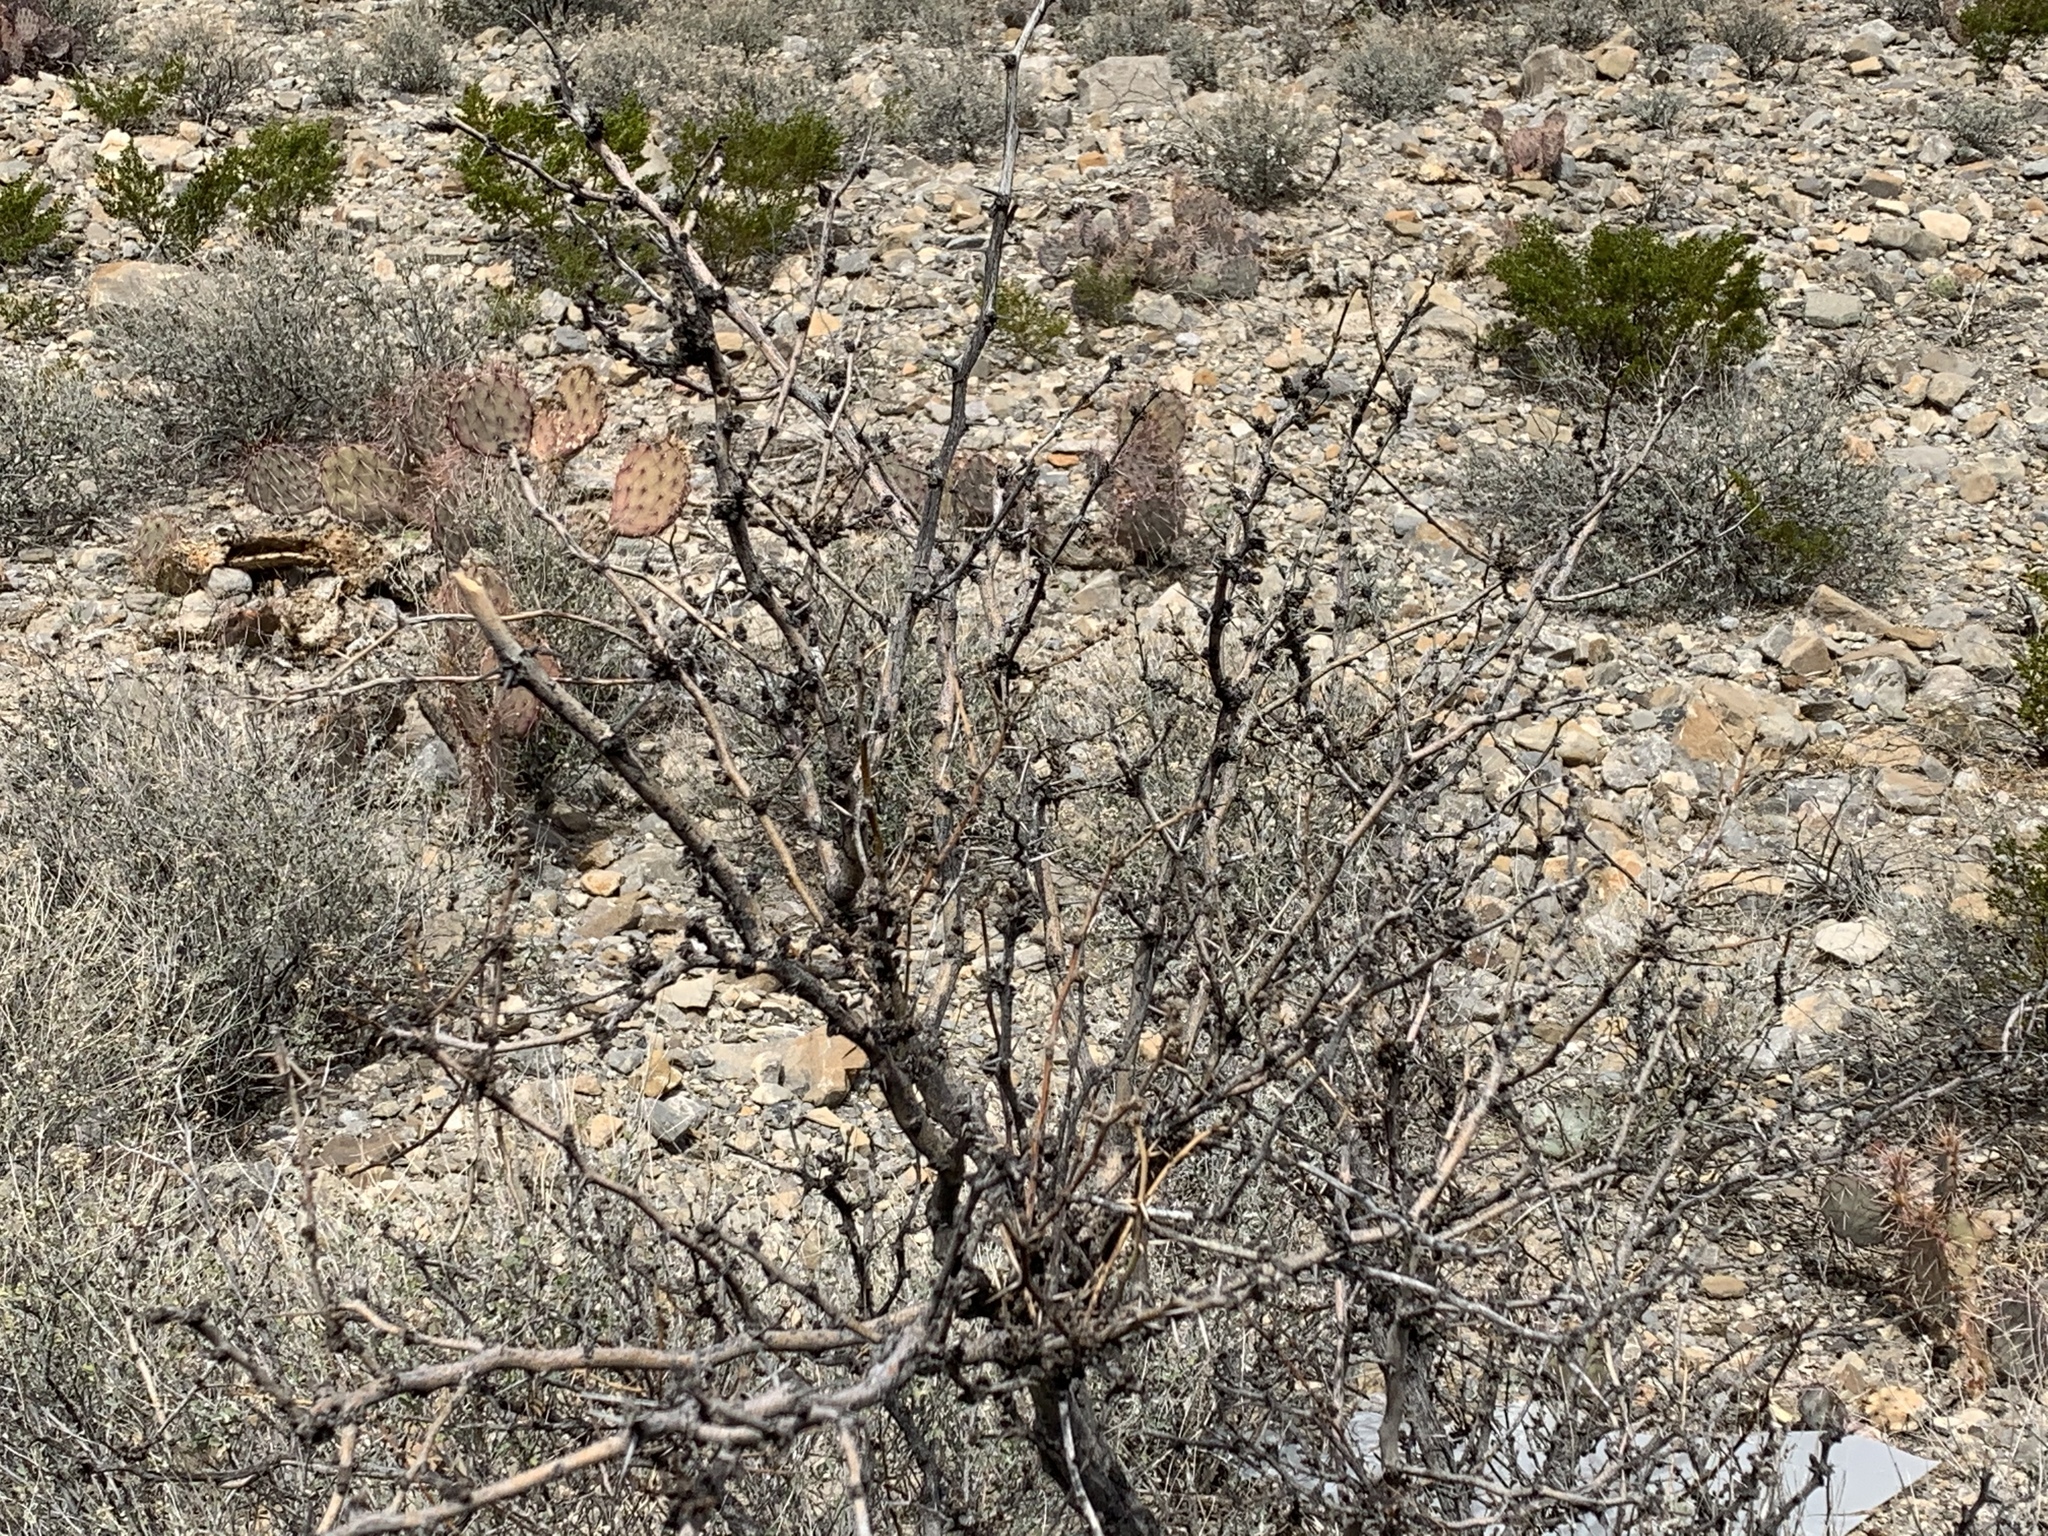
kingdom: Plantae
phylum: Tracheophyta
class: Magnoliopsida
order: Fabales
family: Fabaceae
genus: Prosopis
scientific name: Prosopis glandulosa
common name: Honey mesquite
